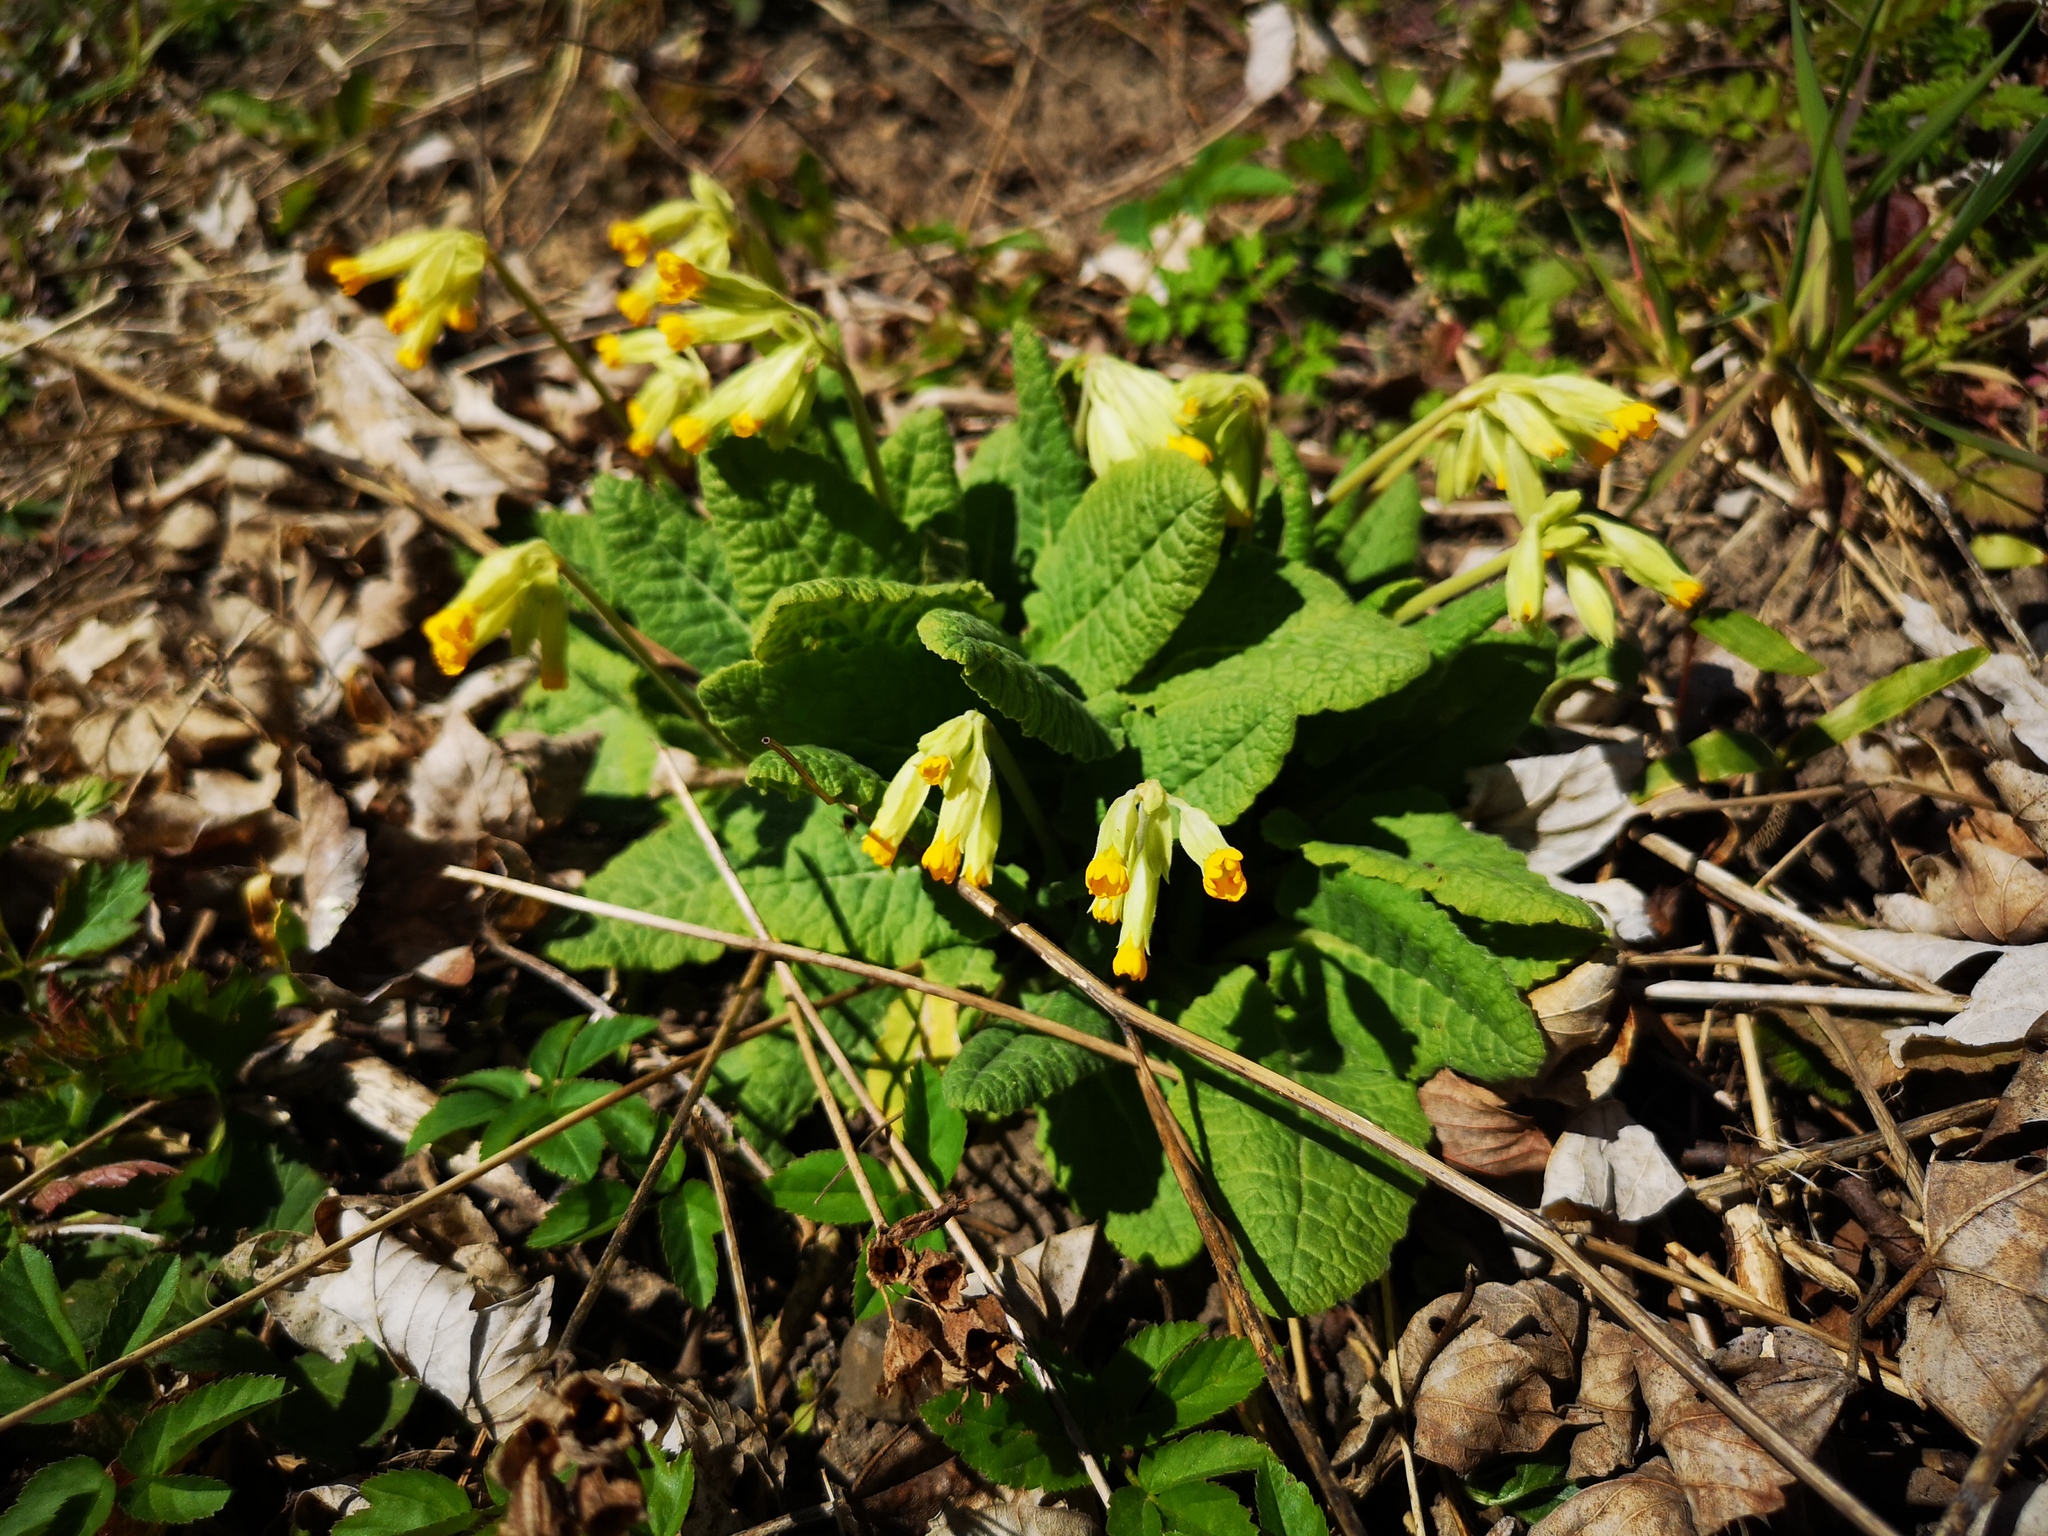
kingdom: Plantae
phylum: Tracheophyta
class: Magnoliopsida
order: Ericales
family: Primulaceae
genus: Primula
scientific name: Primula veris
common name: Cowslip
